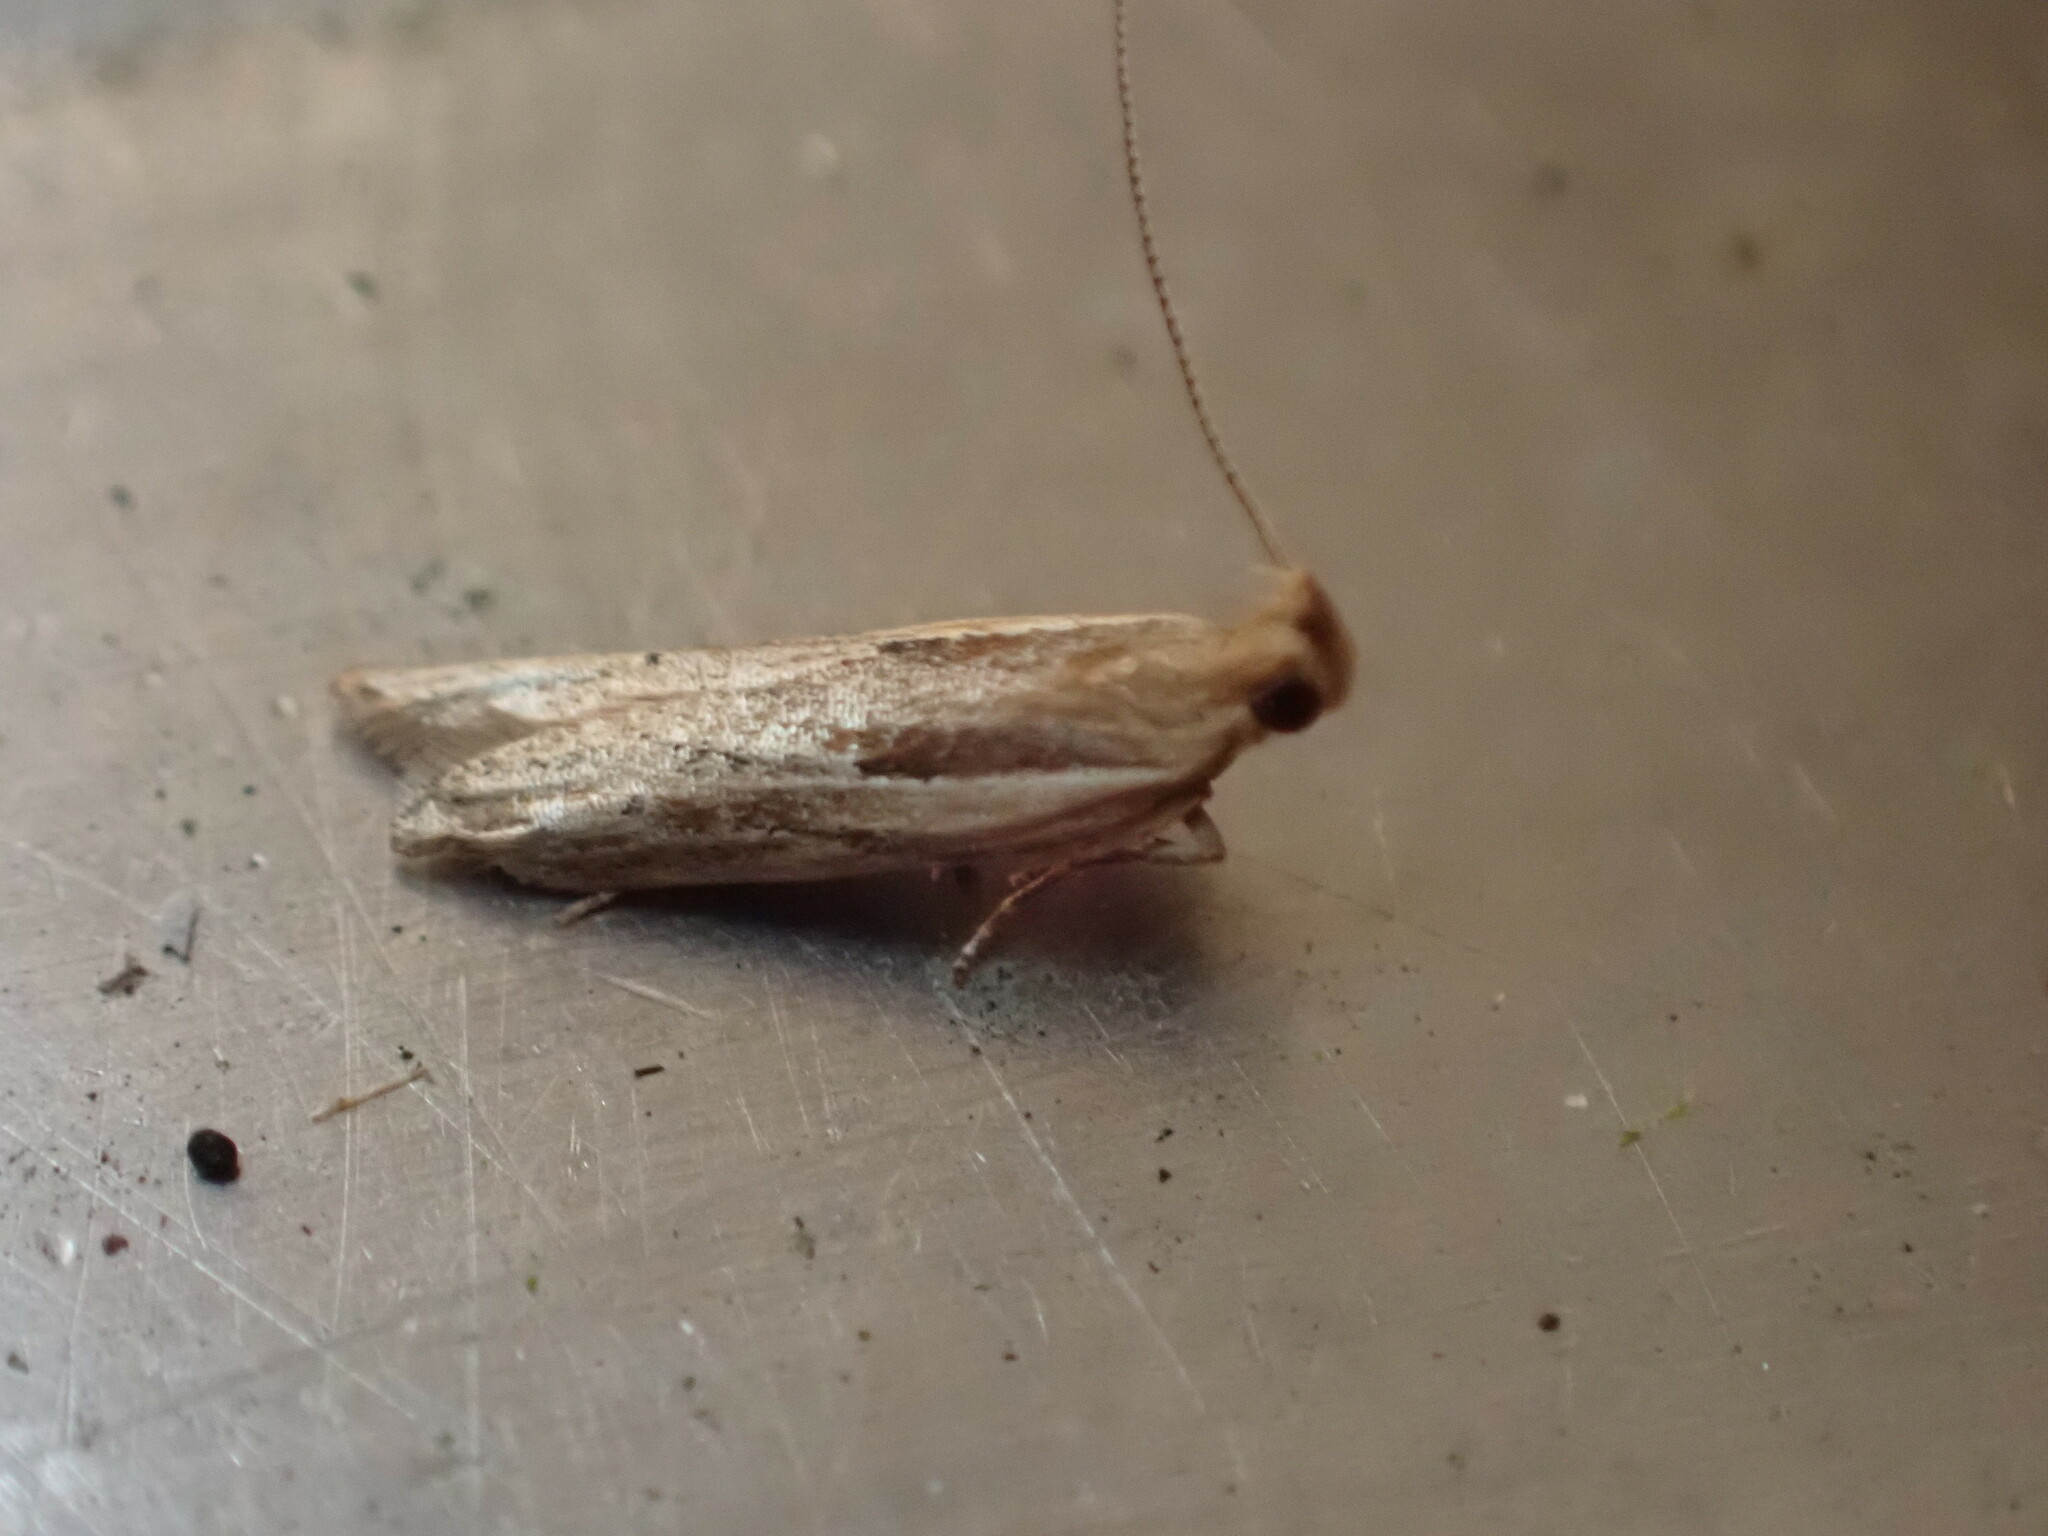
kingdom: Animalia
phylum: Arthropoda
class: Insecta
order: Lepidoptera
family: Depressariidae
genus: Eutorna
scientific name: Eutorna symmorpha
